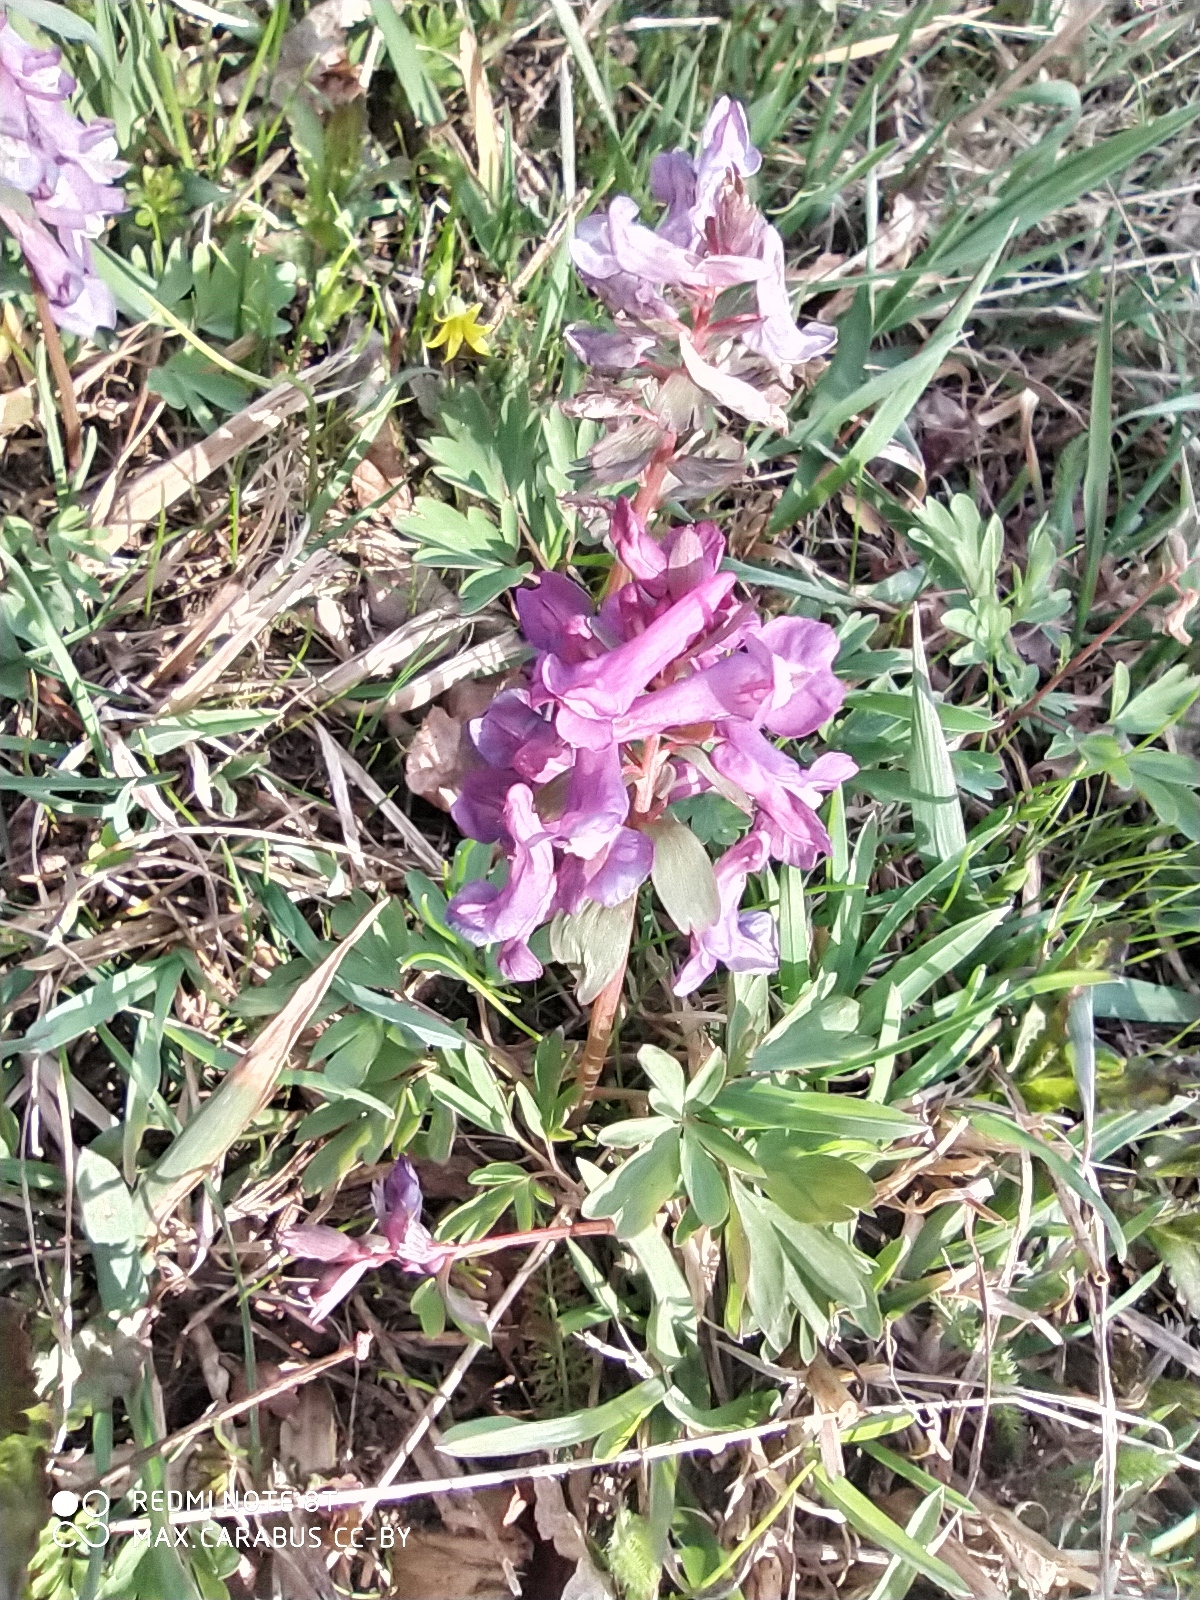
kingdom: Plantae
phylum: Tracheophyta
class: Magnoliopsida
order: Ranunculales
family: Papaveraceae
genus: Corydalis
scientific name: Corydalis solida
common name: Bird-in-a-bush
